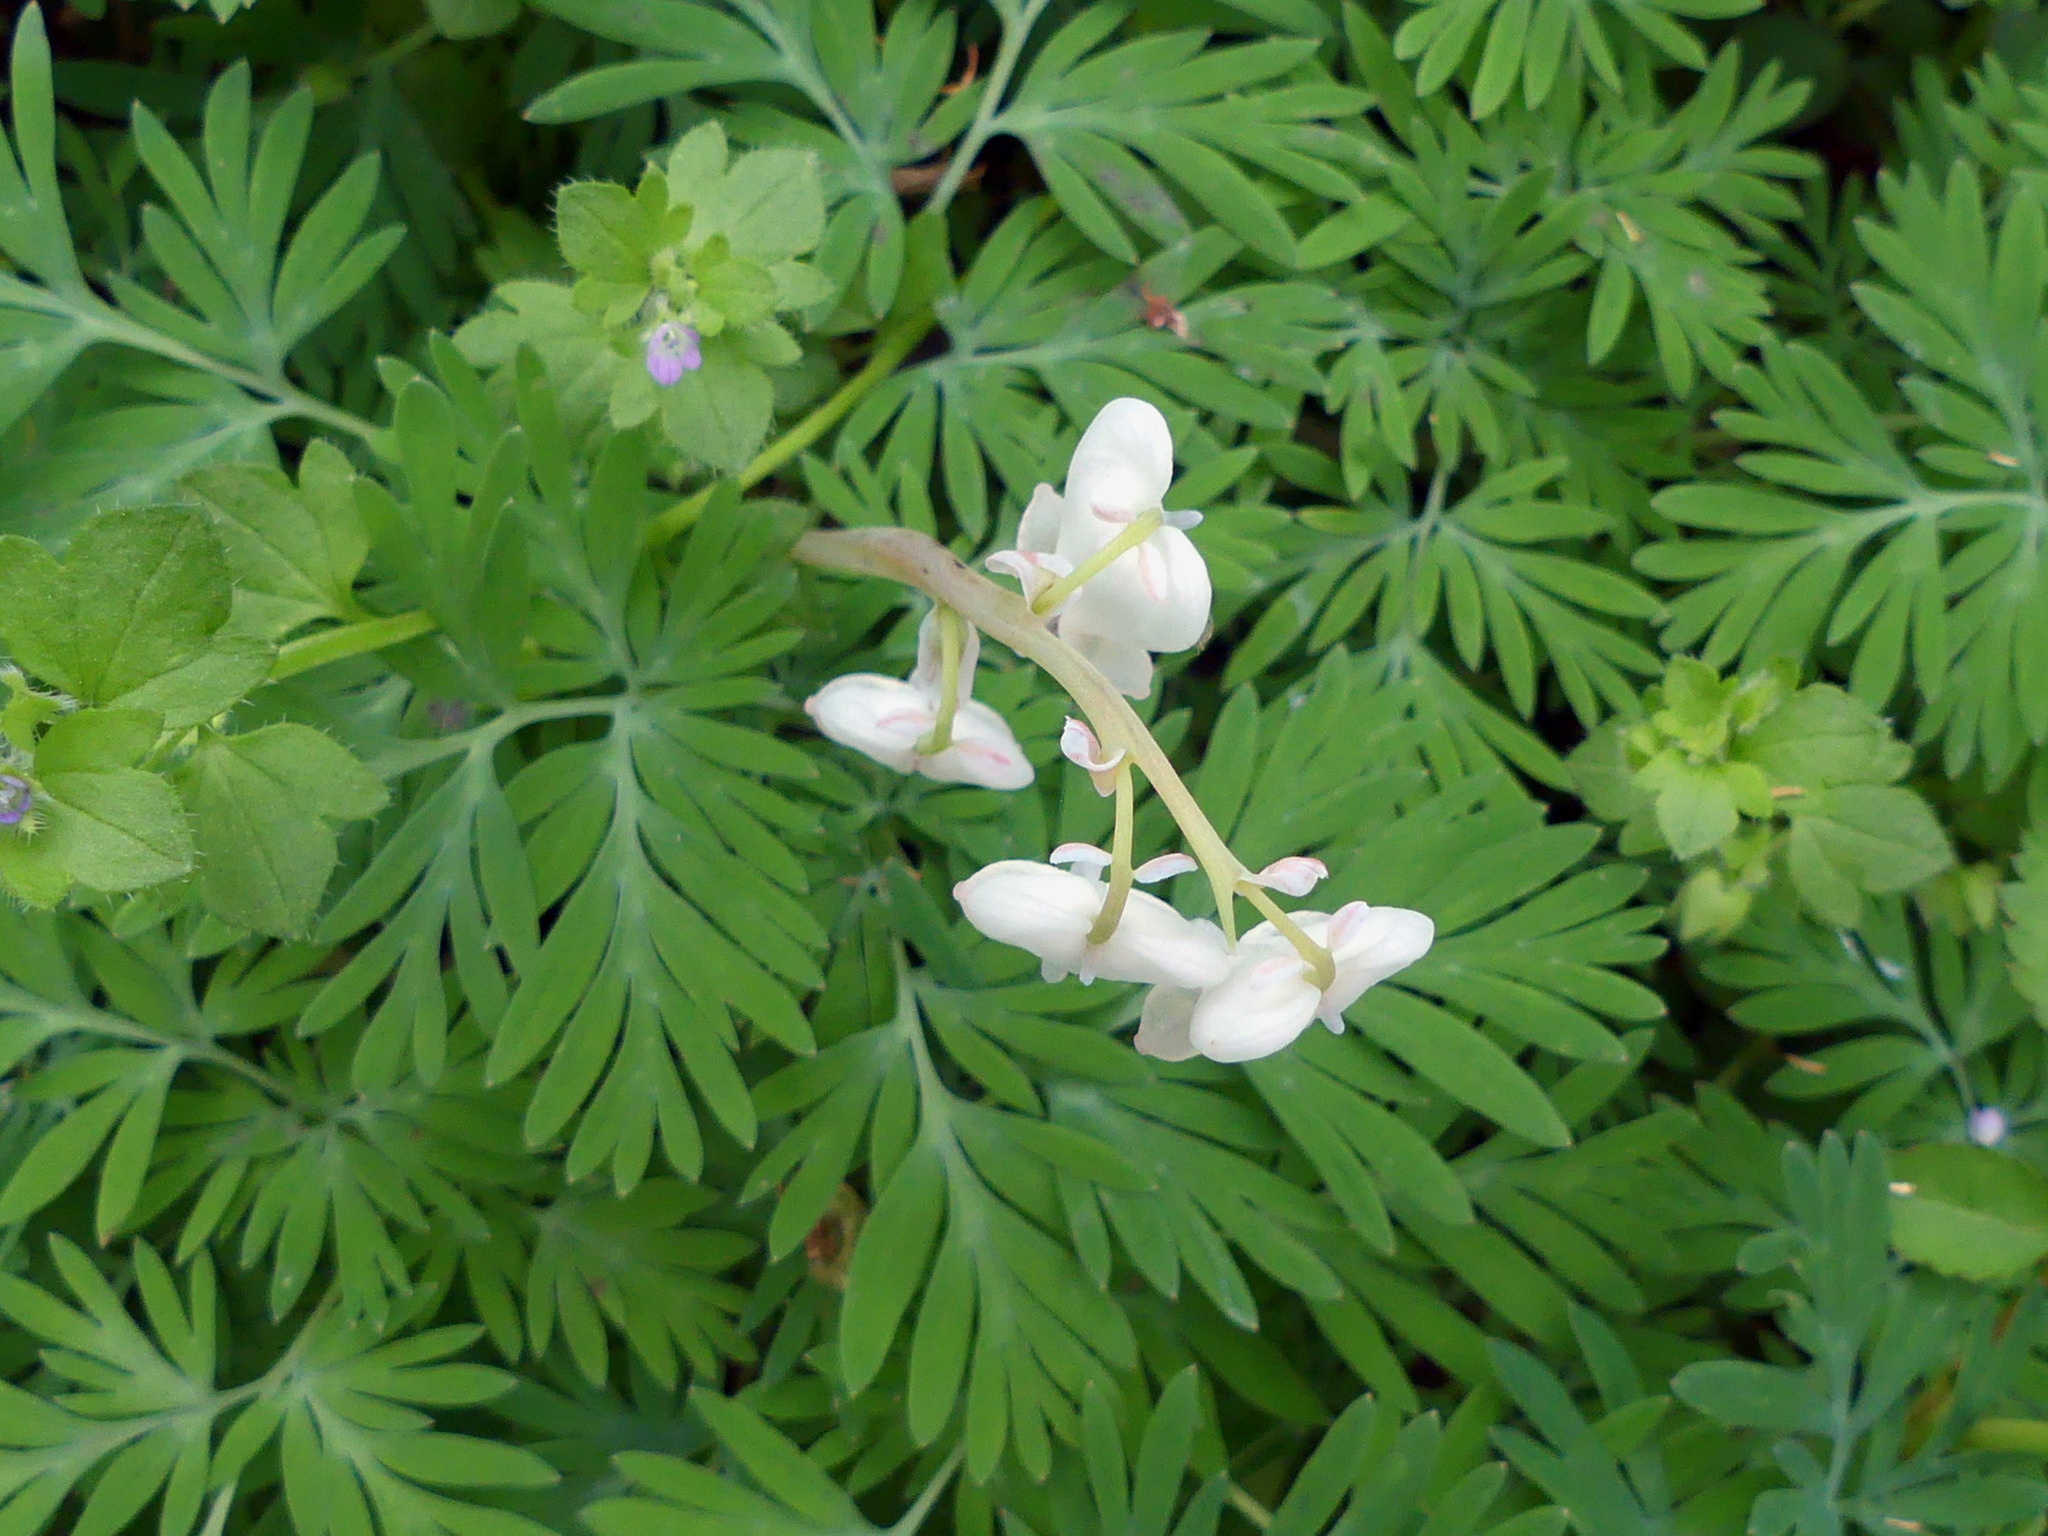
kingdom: Plantae
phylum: Tracheophyta
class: Magnoliopsida
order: Ranunculales
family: Papaveraceae
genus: Dicentra
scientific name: Dicentra canadensis
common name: Squirrel-corn
